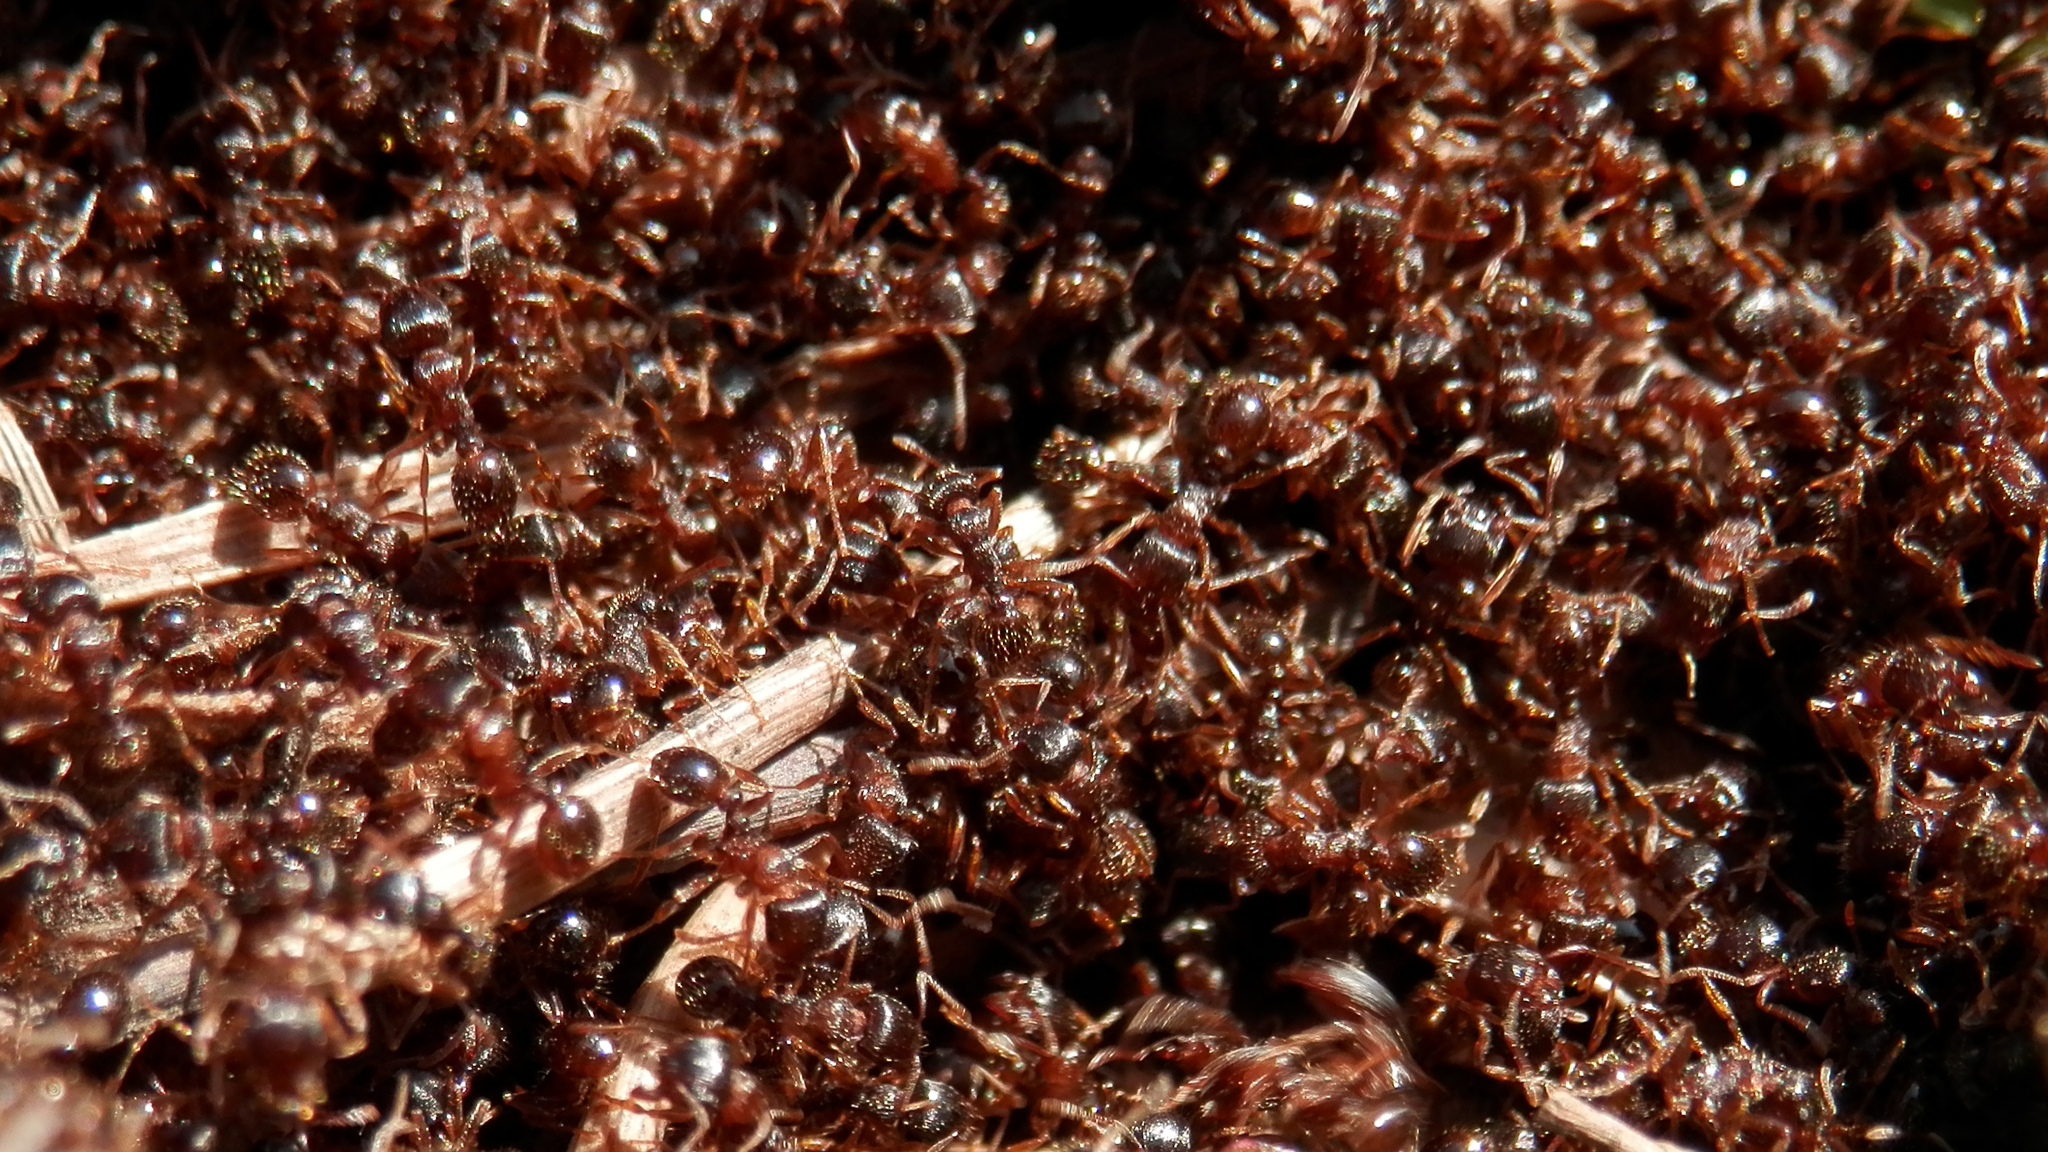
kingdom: Animalia
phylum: Arthropoda
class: Insecta
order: Hymenoptera
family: Formicidae
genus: Tetramorium
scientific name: Tetramorium immigrans
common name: Pavement ant
